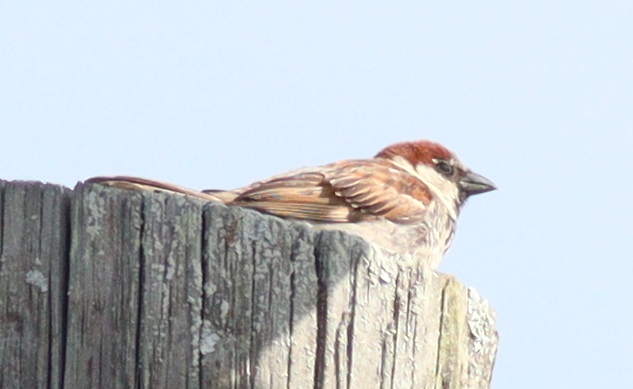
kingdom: Animalia
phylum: Chordata
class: Aves
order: Passeriformes
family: Passeridae
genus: Passer
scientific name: Passer domesticus
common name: House sparrow
